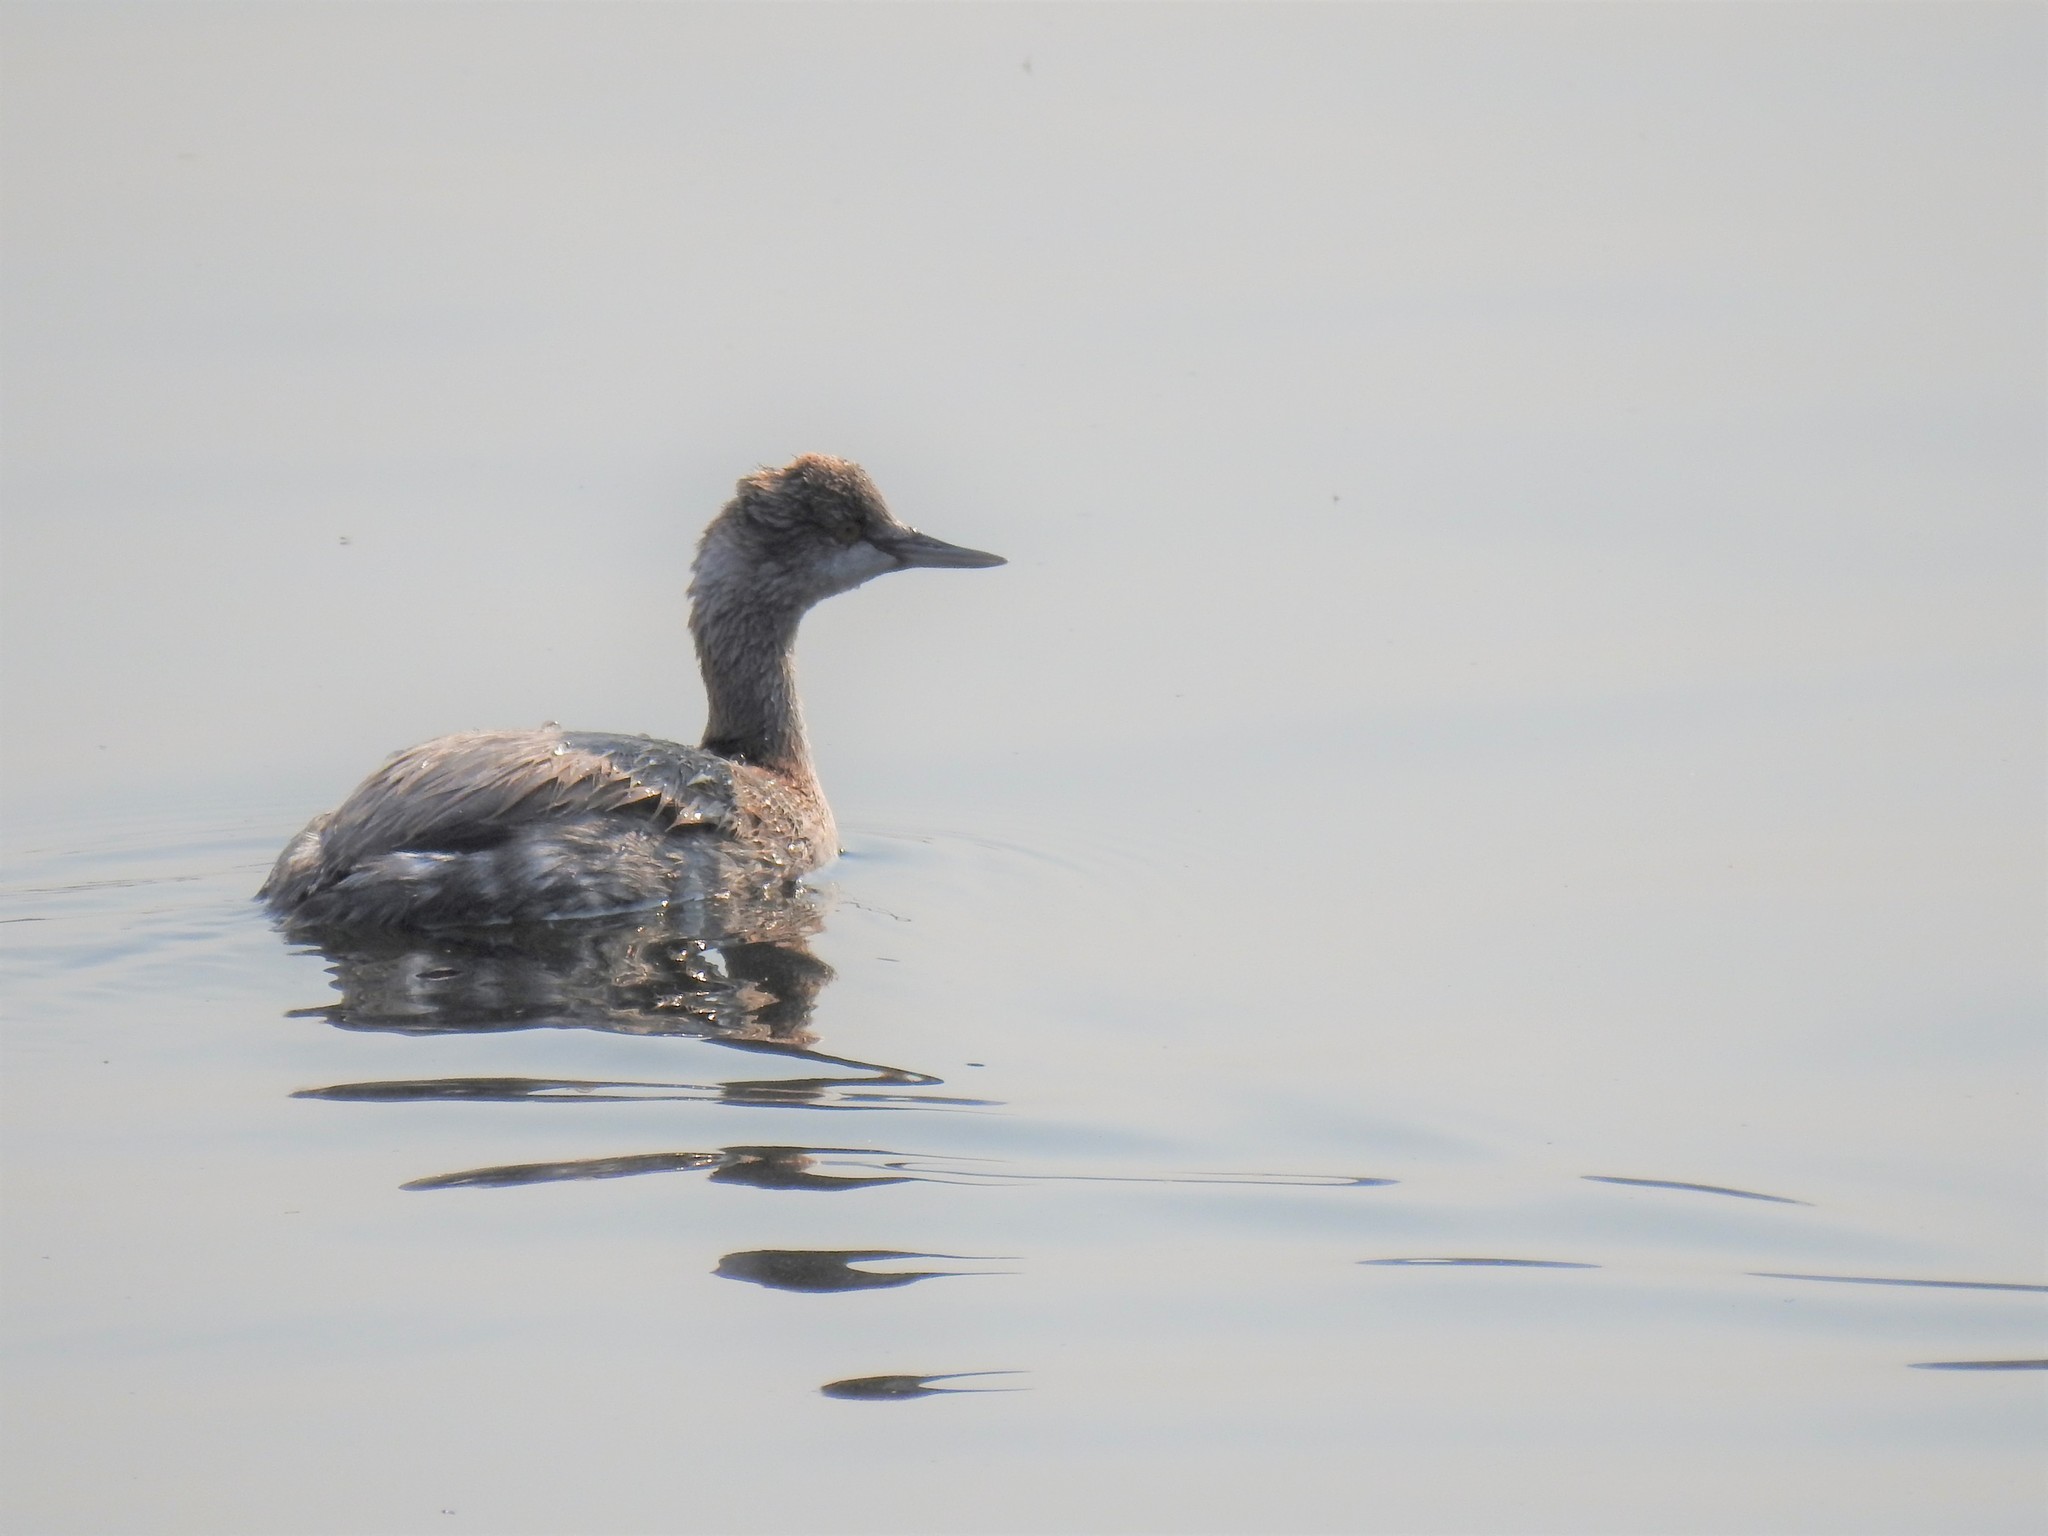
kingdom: Animalia
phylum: Chordata
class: Aves
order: Podicipediformes
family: Podicipedidae
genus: Podiceps
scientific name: Podiceps nigricollis
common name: Black-necked grebe
